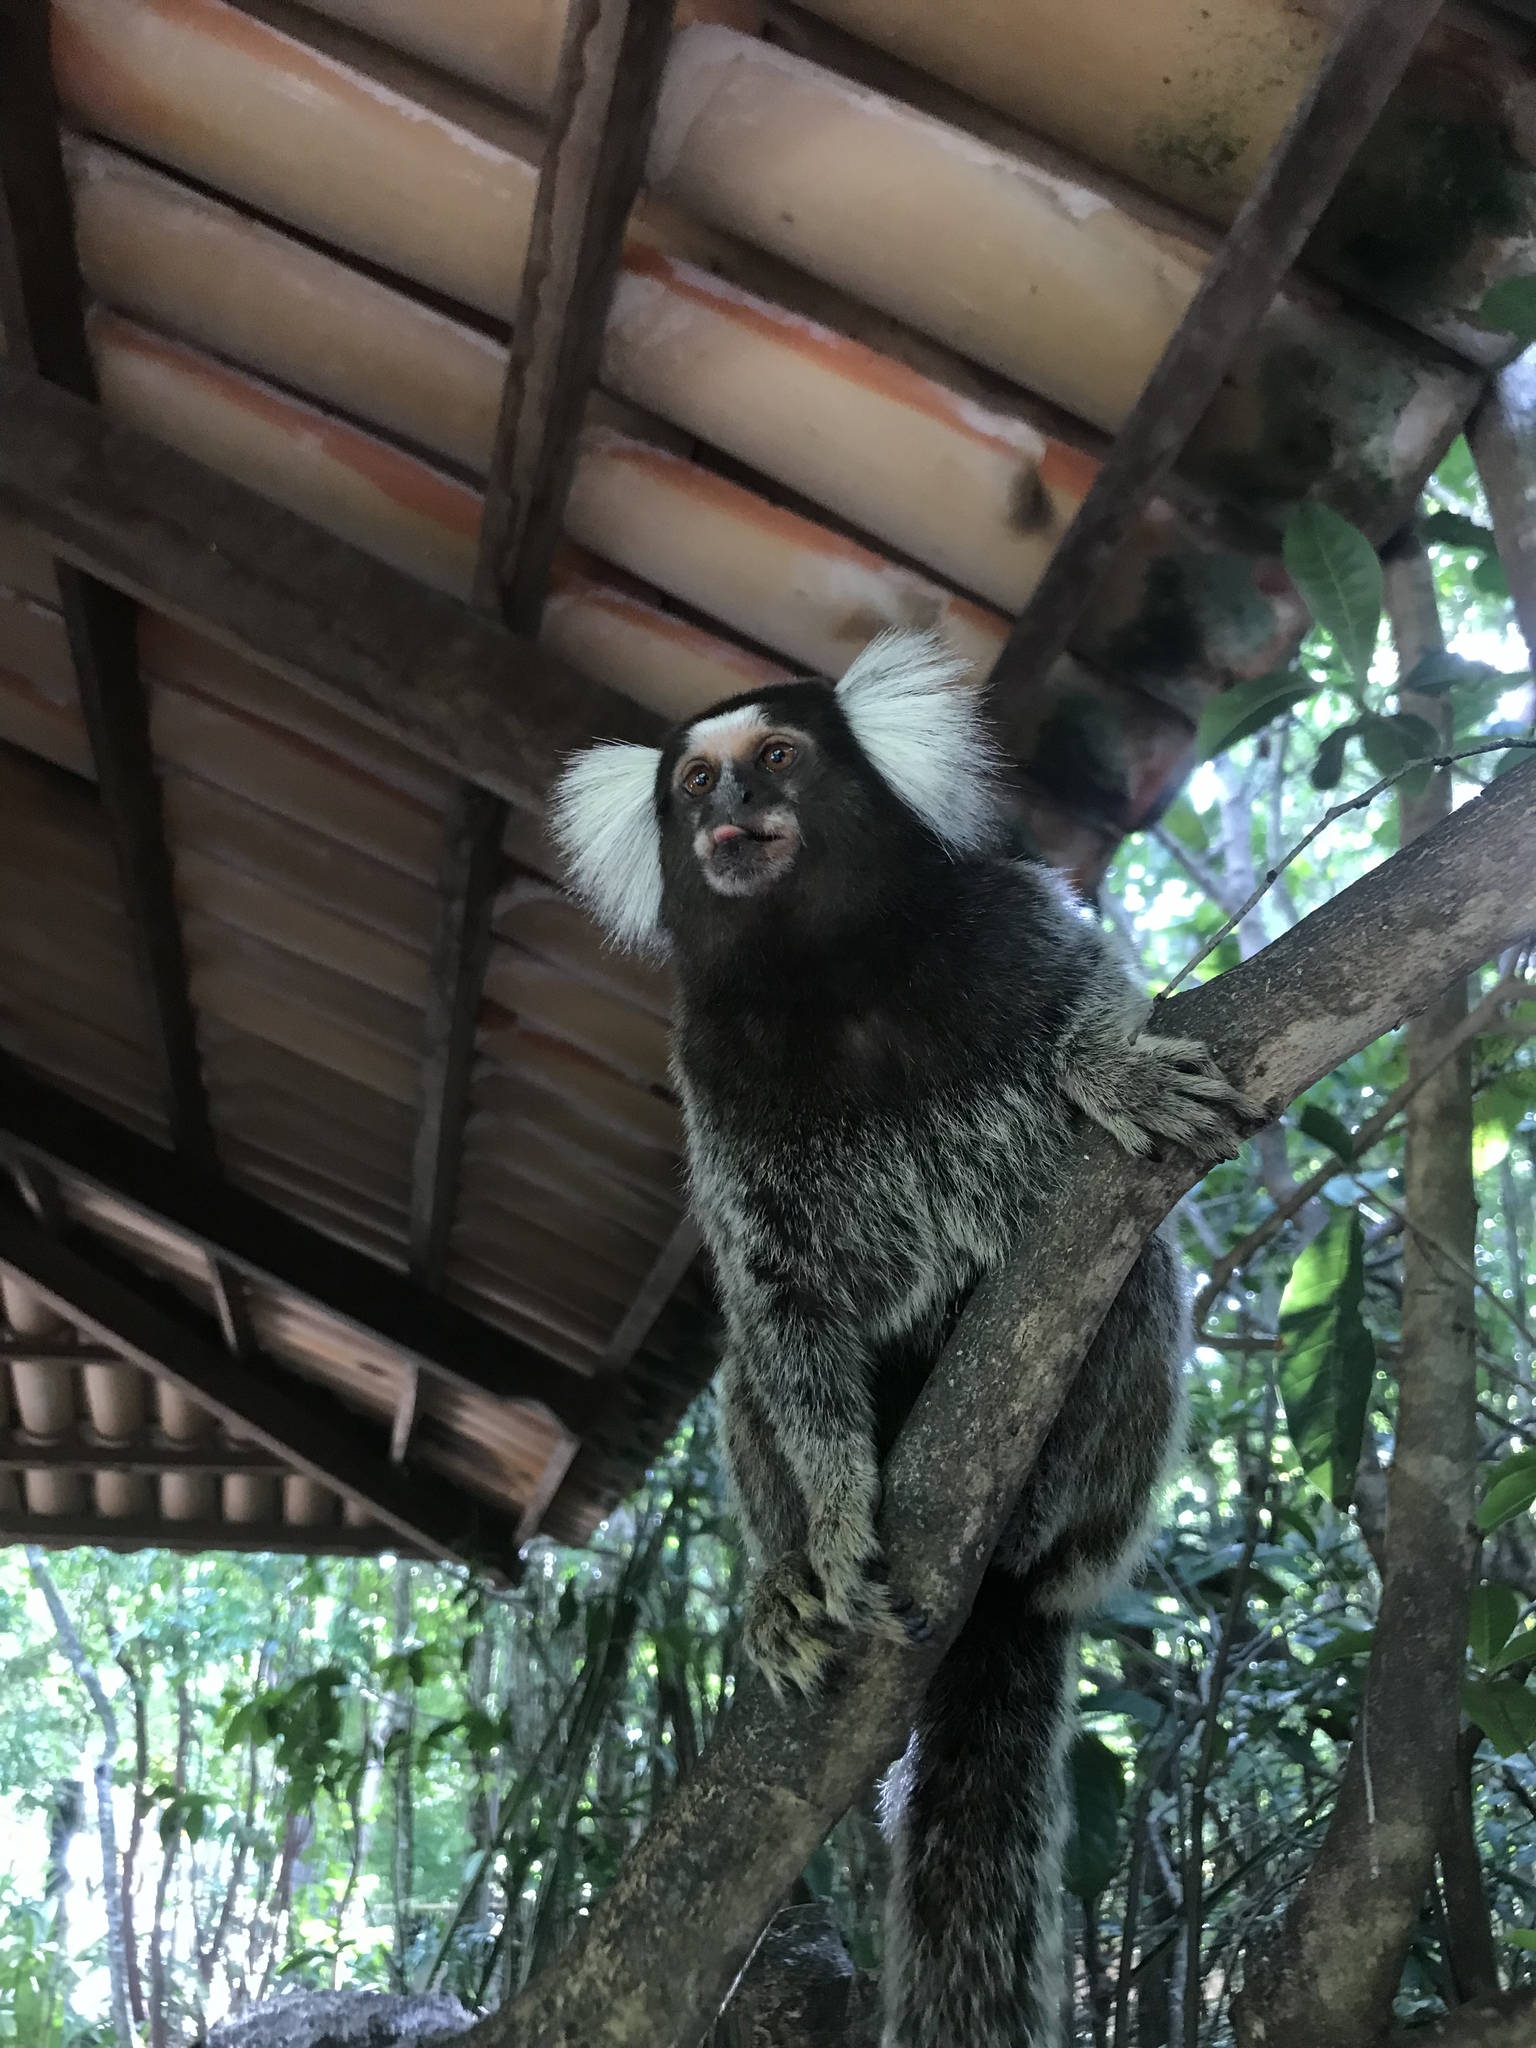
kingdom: Animalia
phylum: Chordata
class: Mammalia
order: Primates
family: Callitrichidae
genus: Callithrix
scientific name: Callithrix jacchus
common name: Common marmoset
